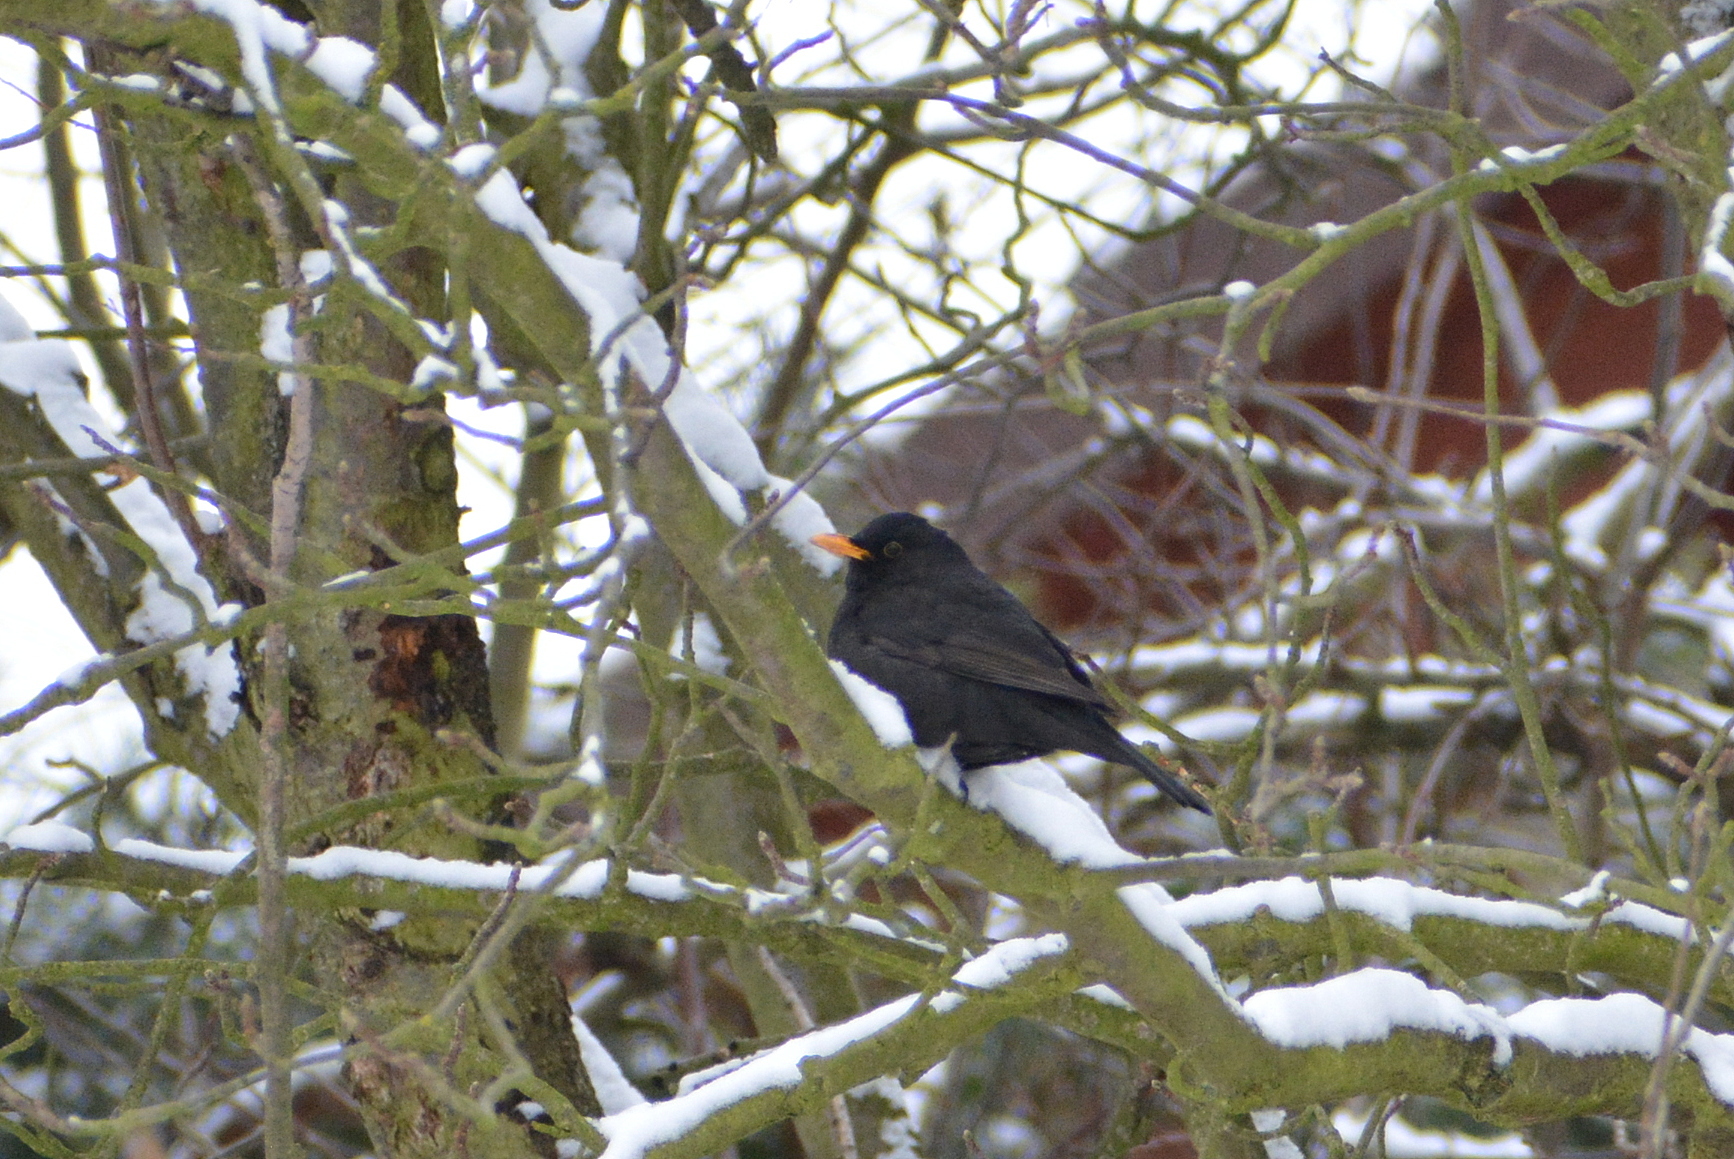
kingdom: Animalia
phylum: Chordata
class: Aves
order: Passeriformes
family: Turdidae
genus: Turdus
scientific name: Turdus merula
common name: Common blackbird
